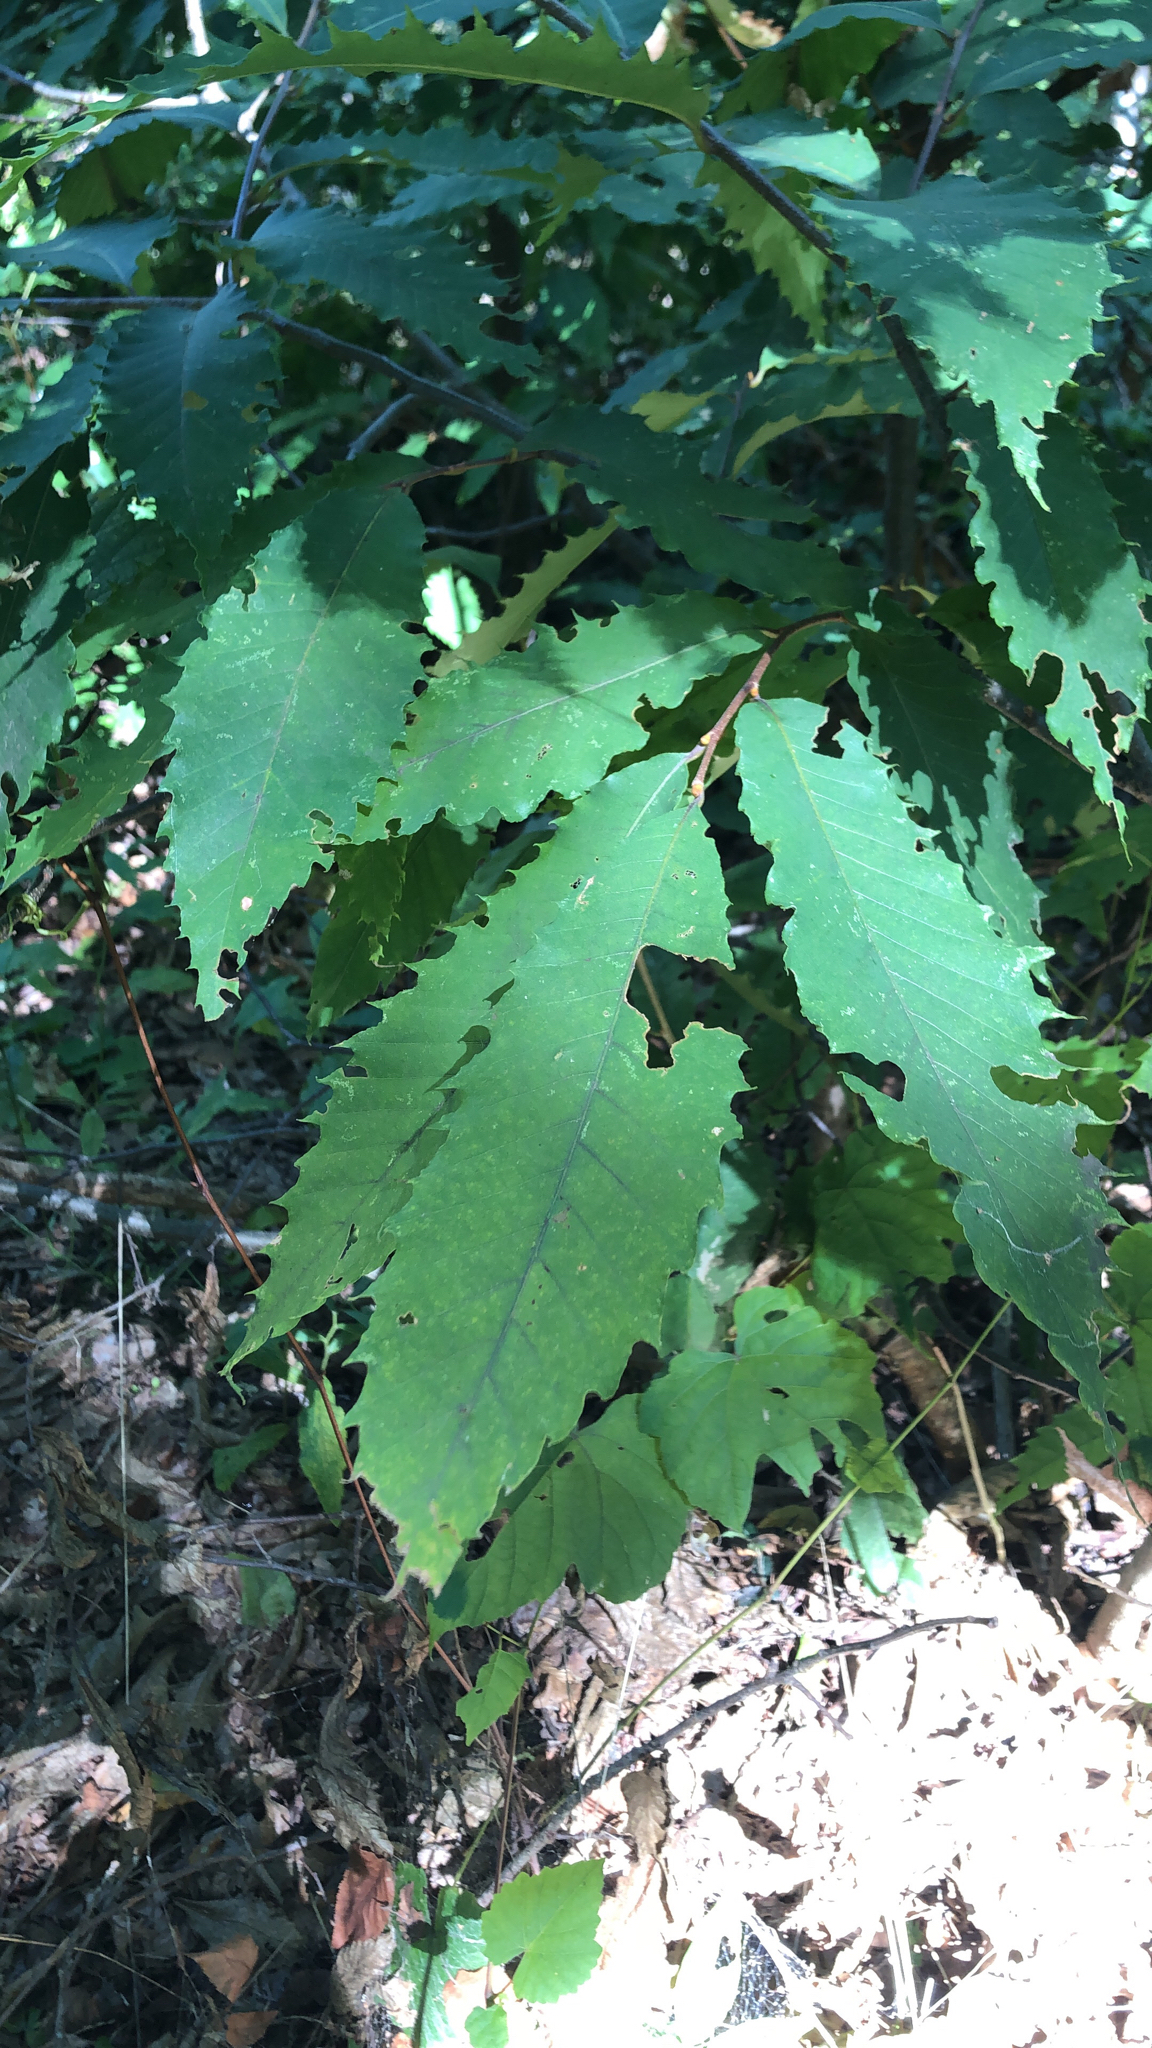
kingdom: Plantae
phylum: Tracheophyta
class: Magnoliopsida
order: Fagales
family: Fagaceae
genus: Castanea
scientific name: Castanea dentata
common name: American chestnut
